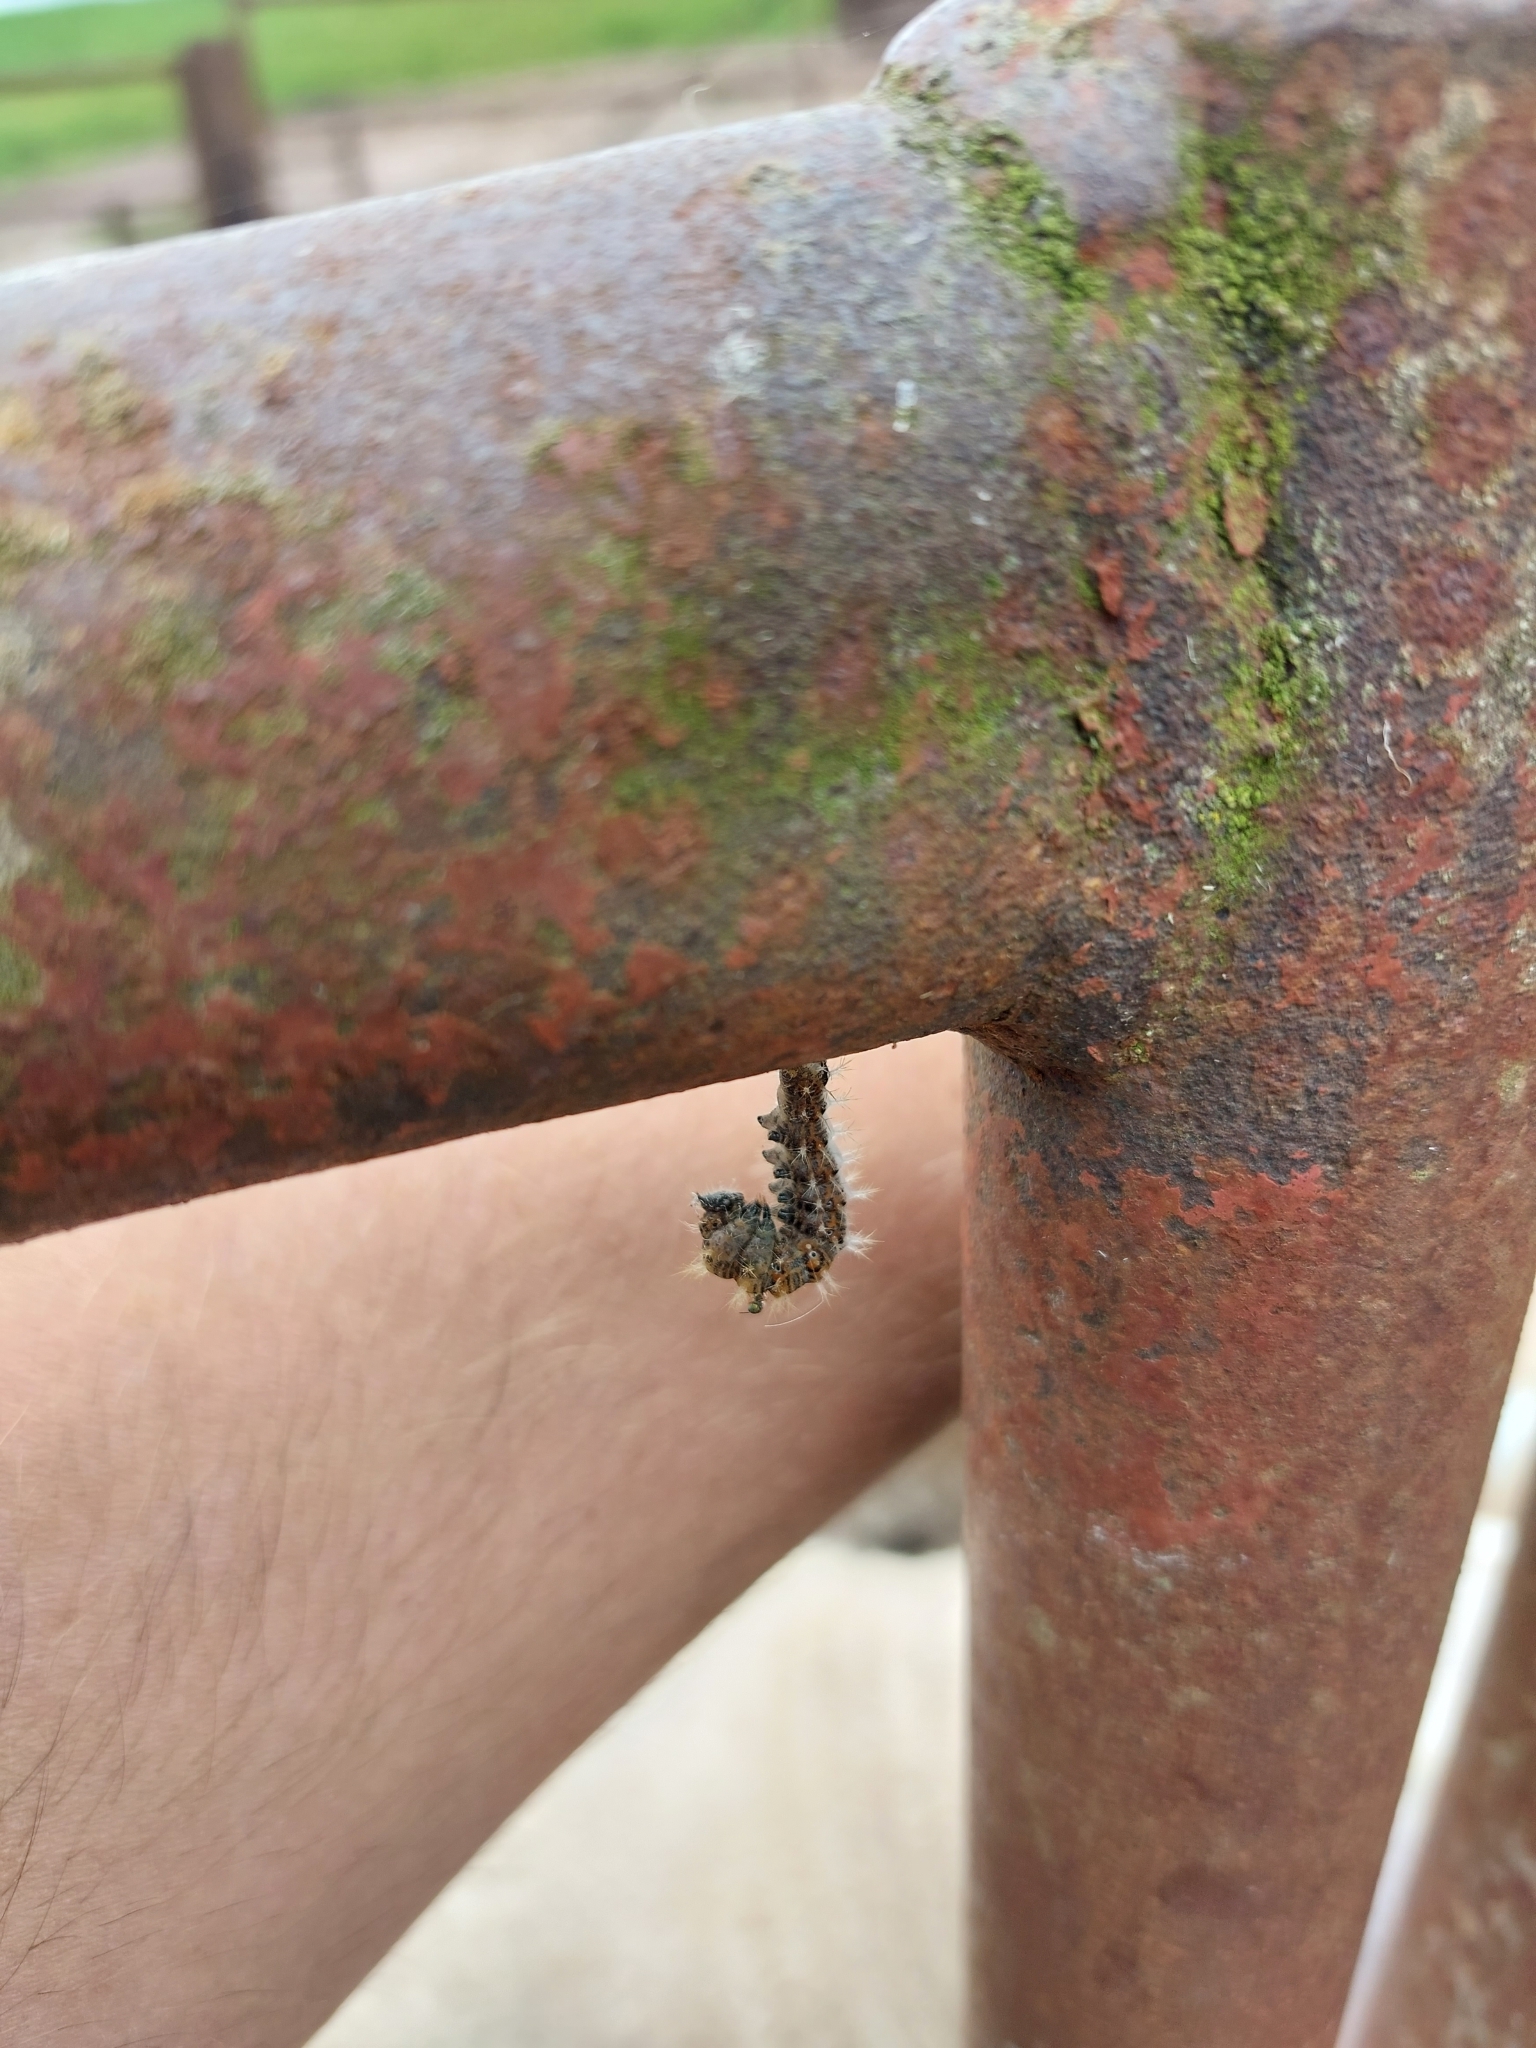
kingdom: Animalia
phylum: Arthropoda
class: Insecta
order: Lepidoptera
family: Nymphalidae
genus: Polygonia
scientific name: Polygonia c-album
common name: Comma
